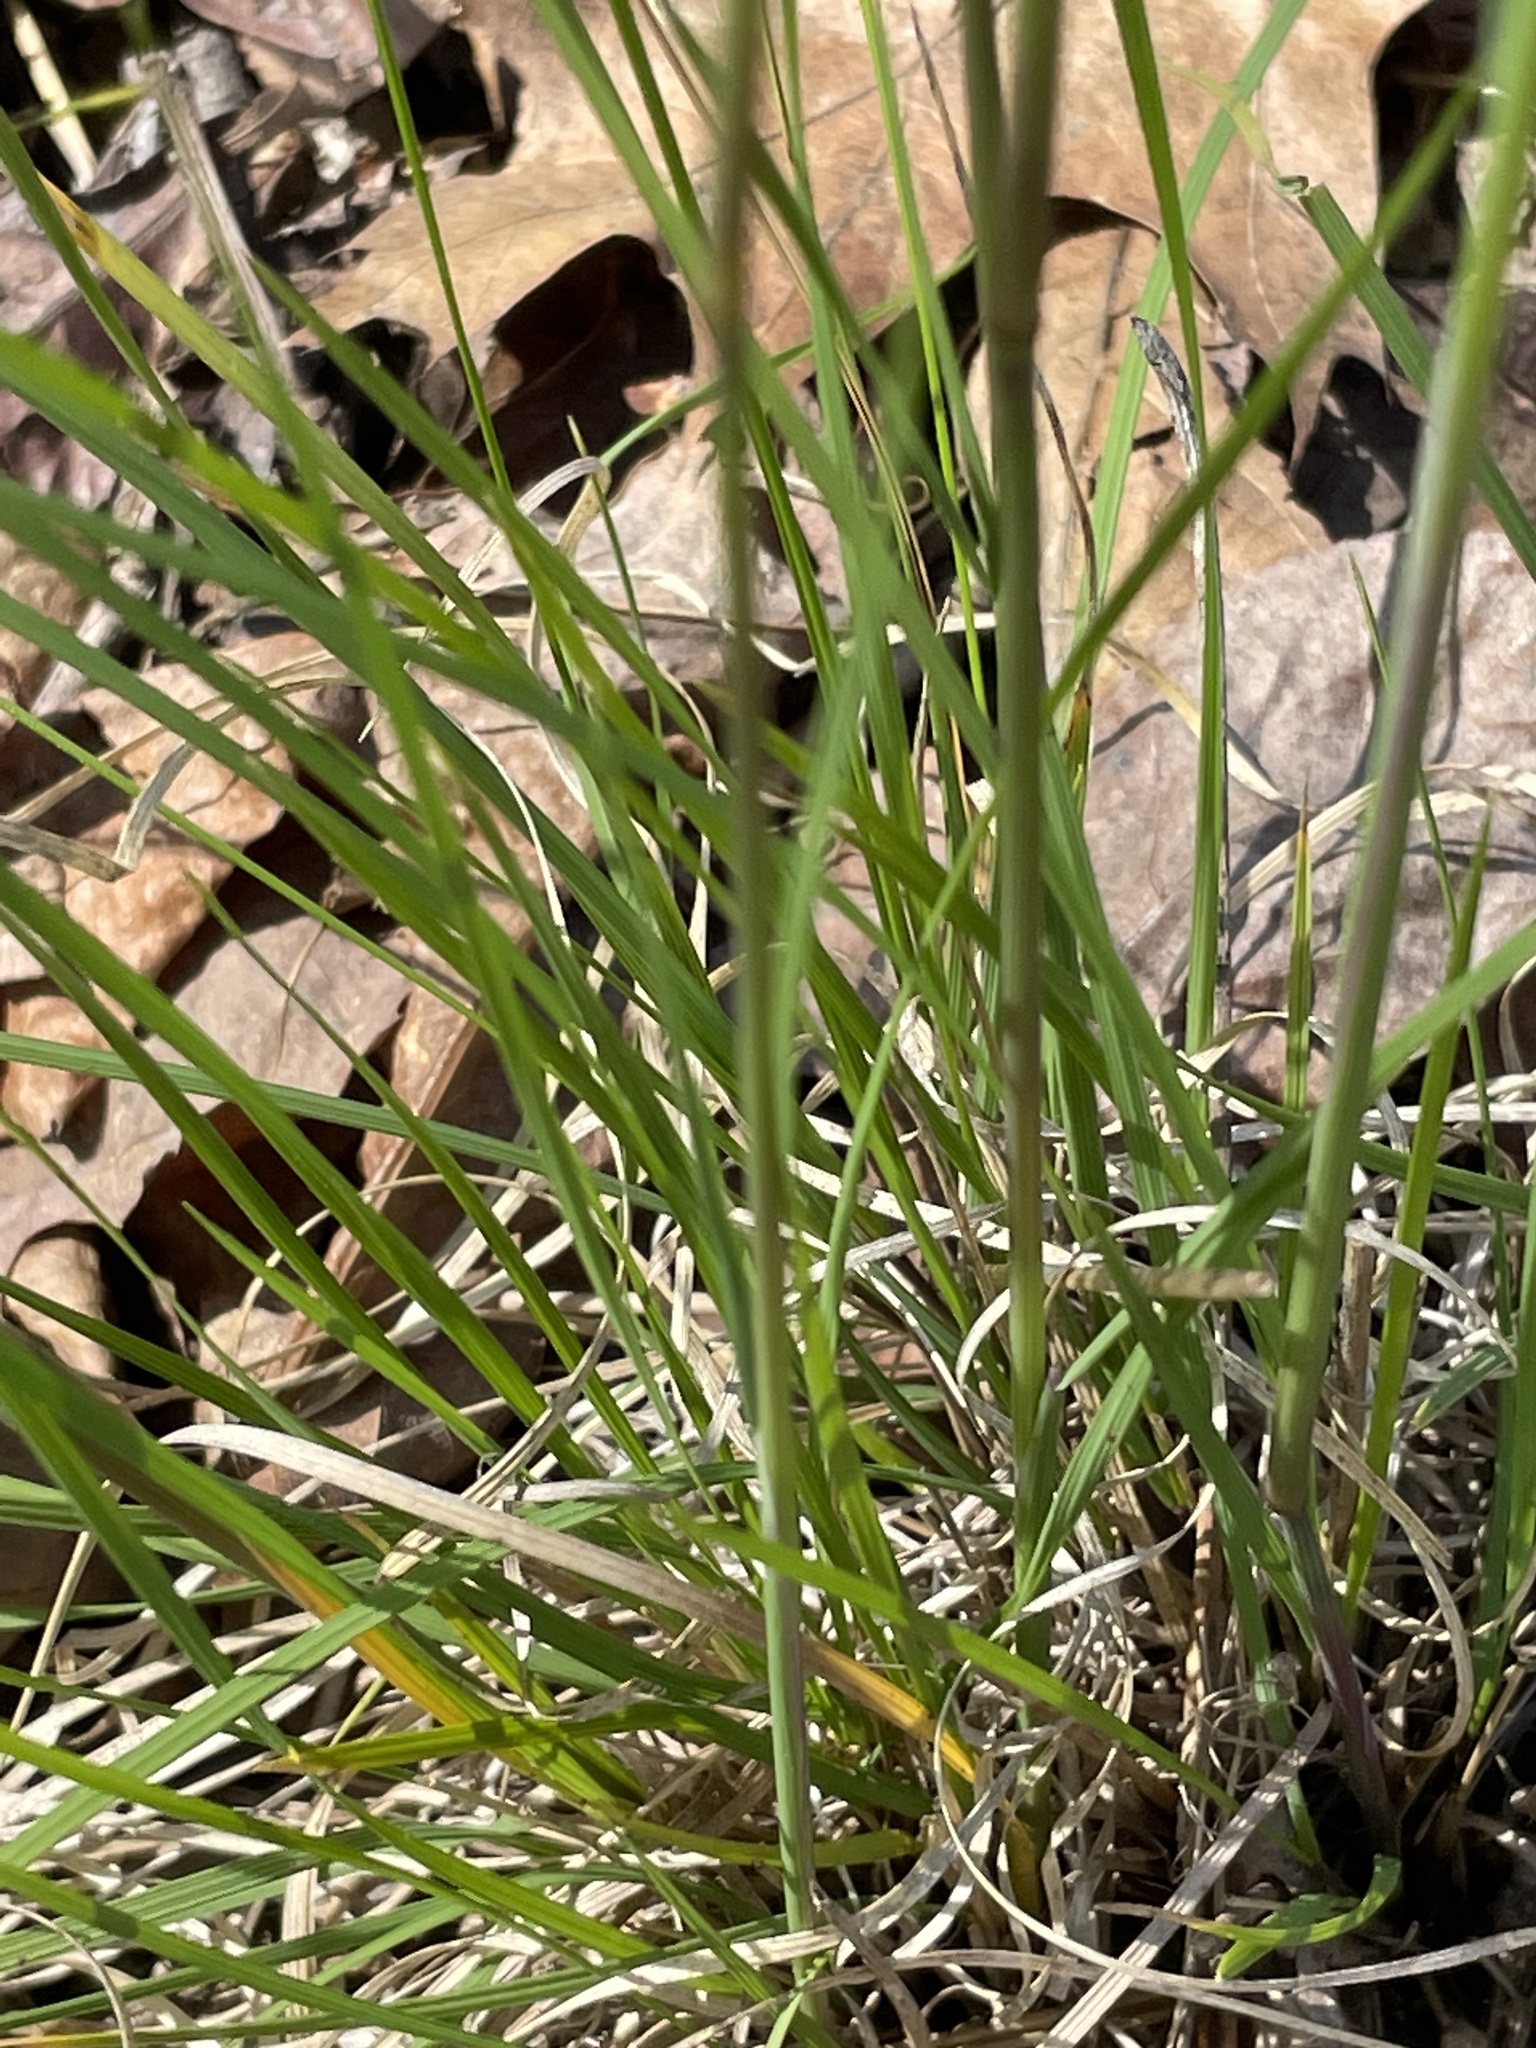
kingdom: Plantae
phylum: Tracheophyta
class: Liliopsida
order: Poales
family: Poaceae
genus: Piptochaetium
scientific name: Piptochaetium avenaceum
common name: Black bunchgrass
